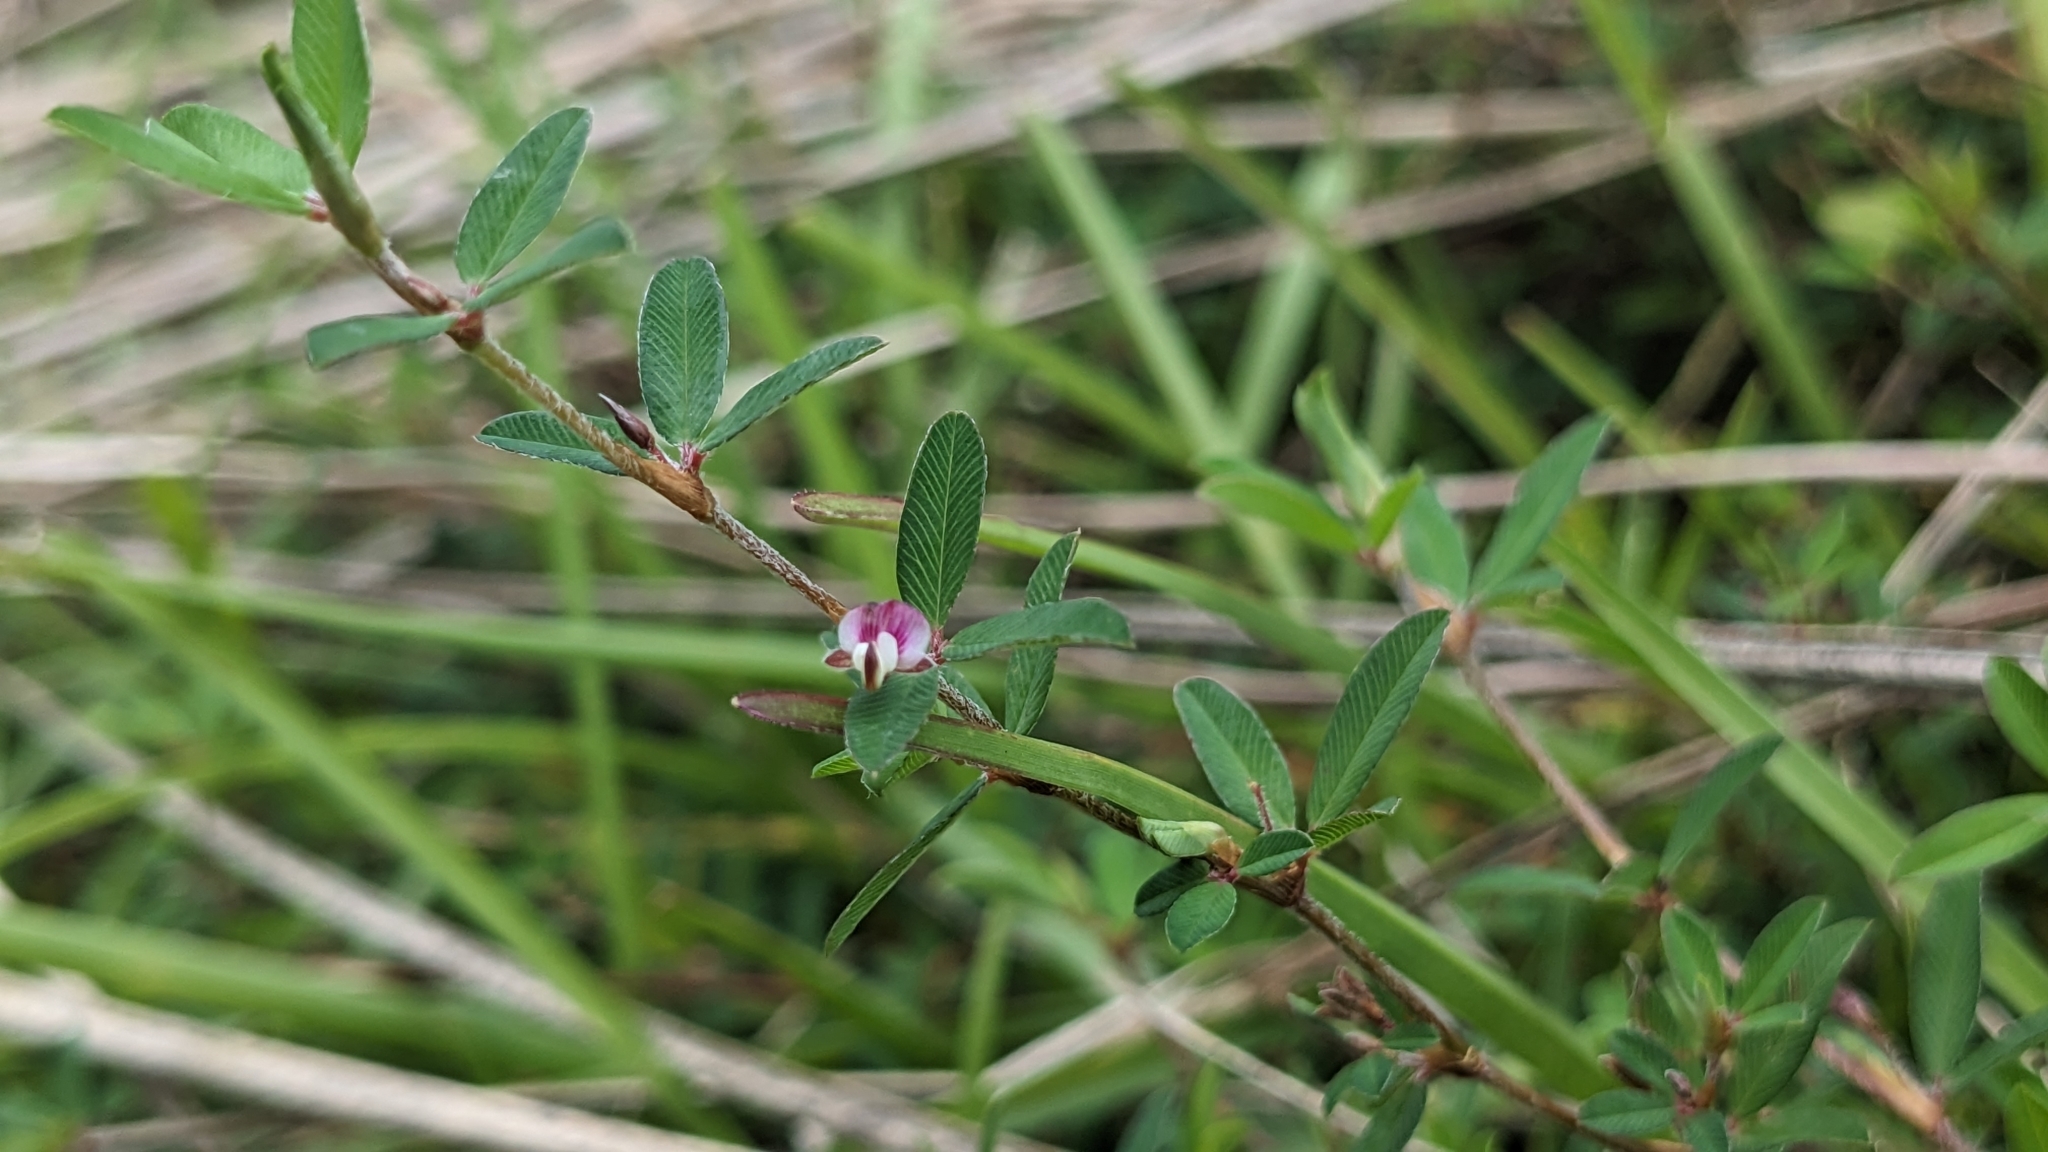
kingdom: Plantae
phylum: Tracheophyta
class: Magnoliopsida
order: Fabales
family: Fabaceae
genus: Kummerowia
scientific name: Kummerowia striata
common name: Japanese clover
